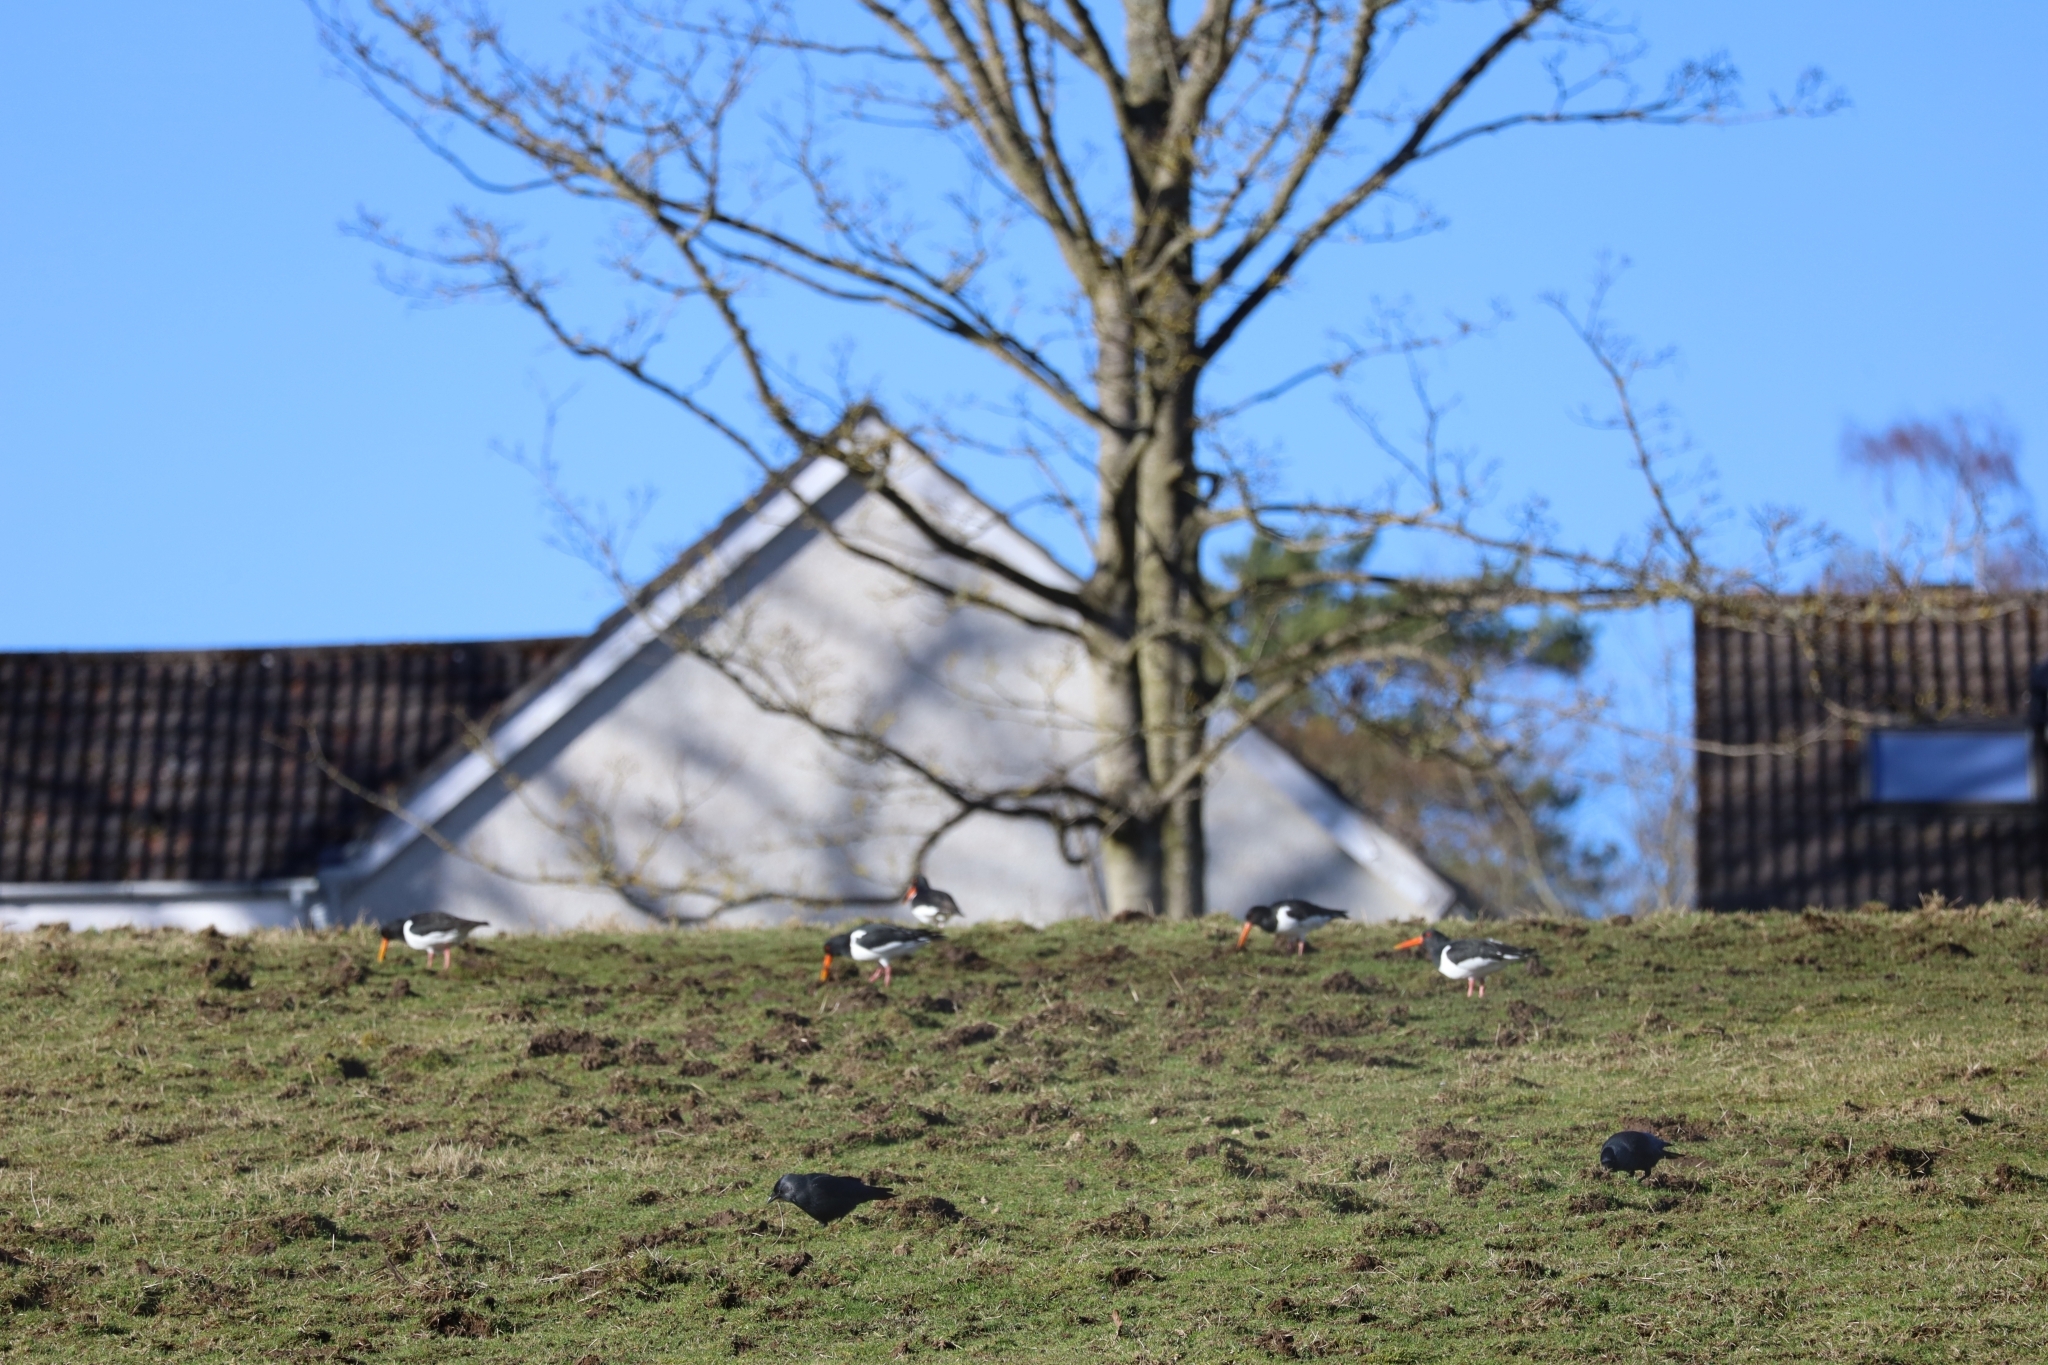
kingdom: Animalia
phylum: Chordata
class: Aves
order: Charadriiformes
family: Haematopodidae
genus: Haematopus
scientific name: Haematopus ostralegus
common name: Eurasian oystercatcher
